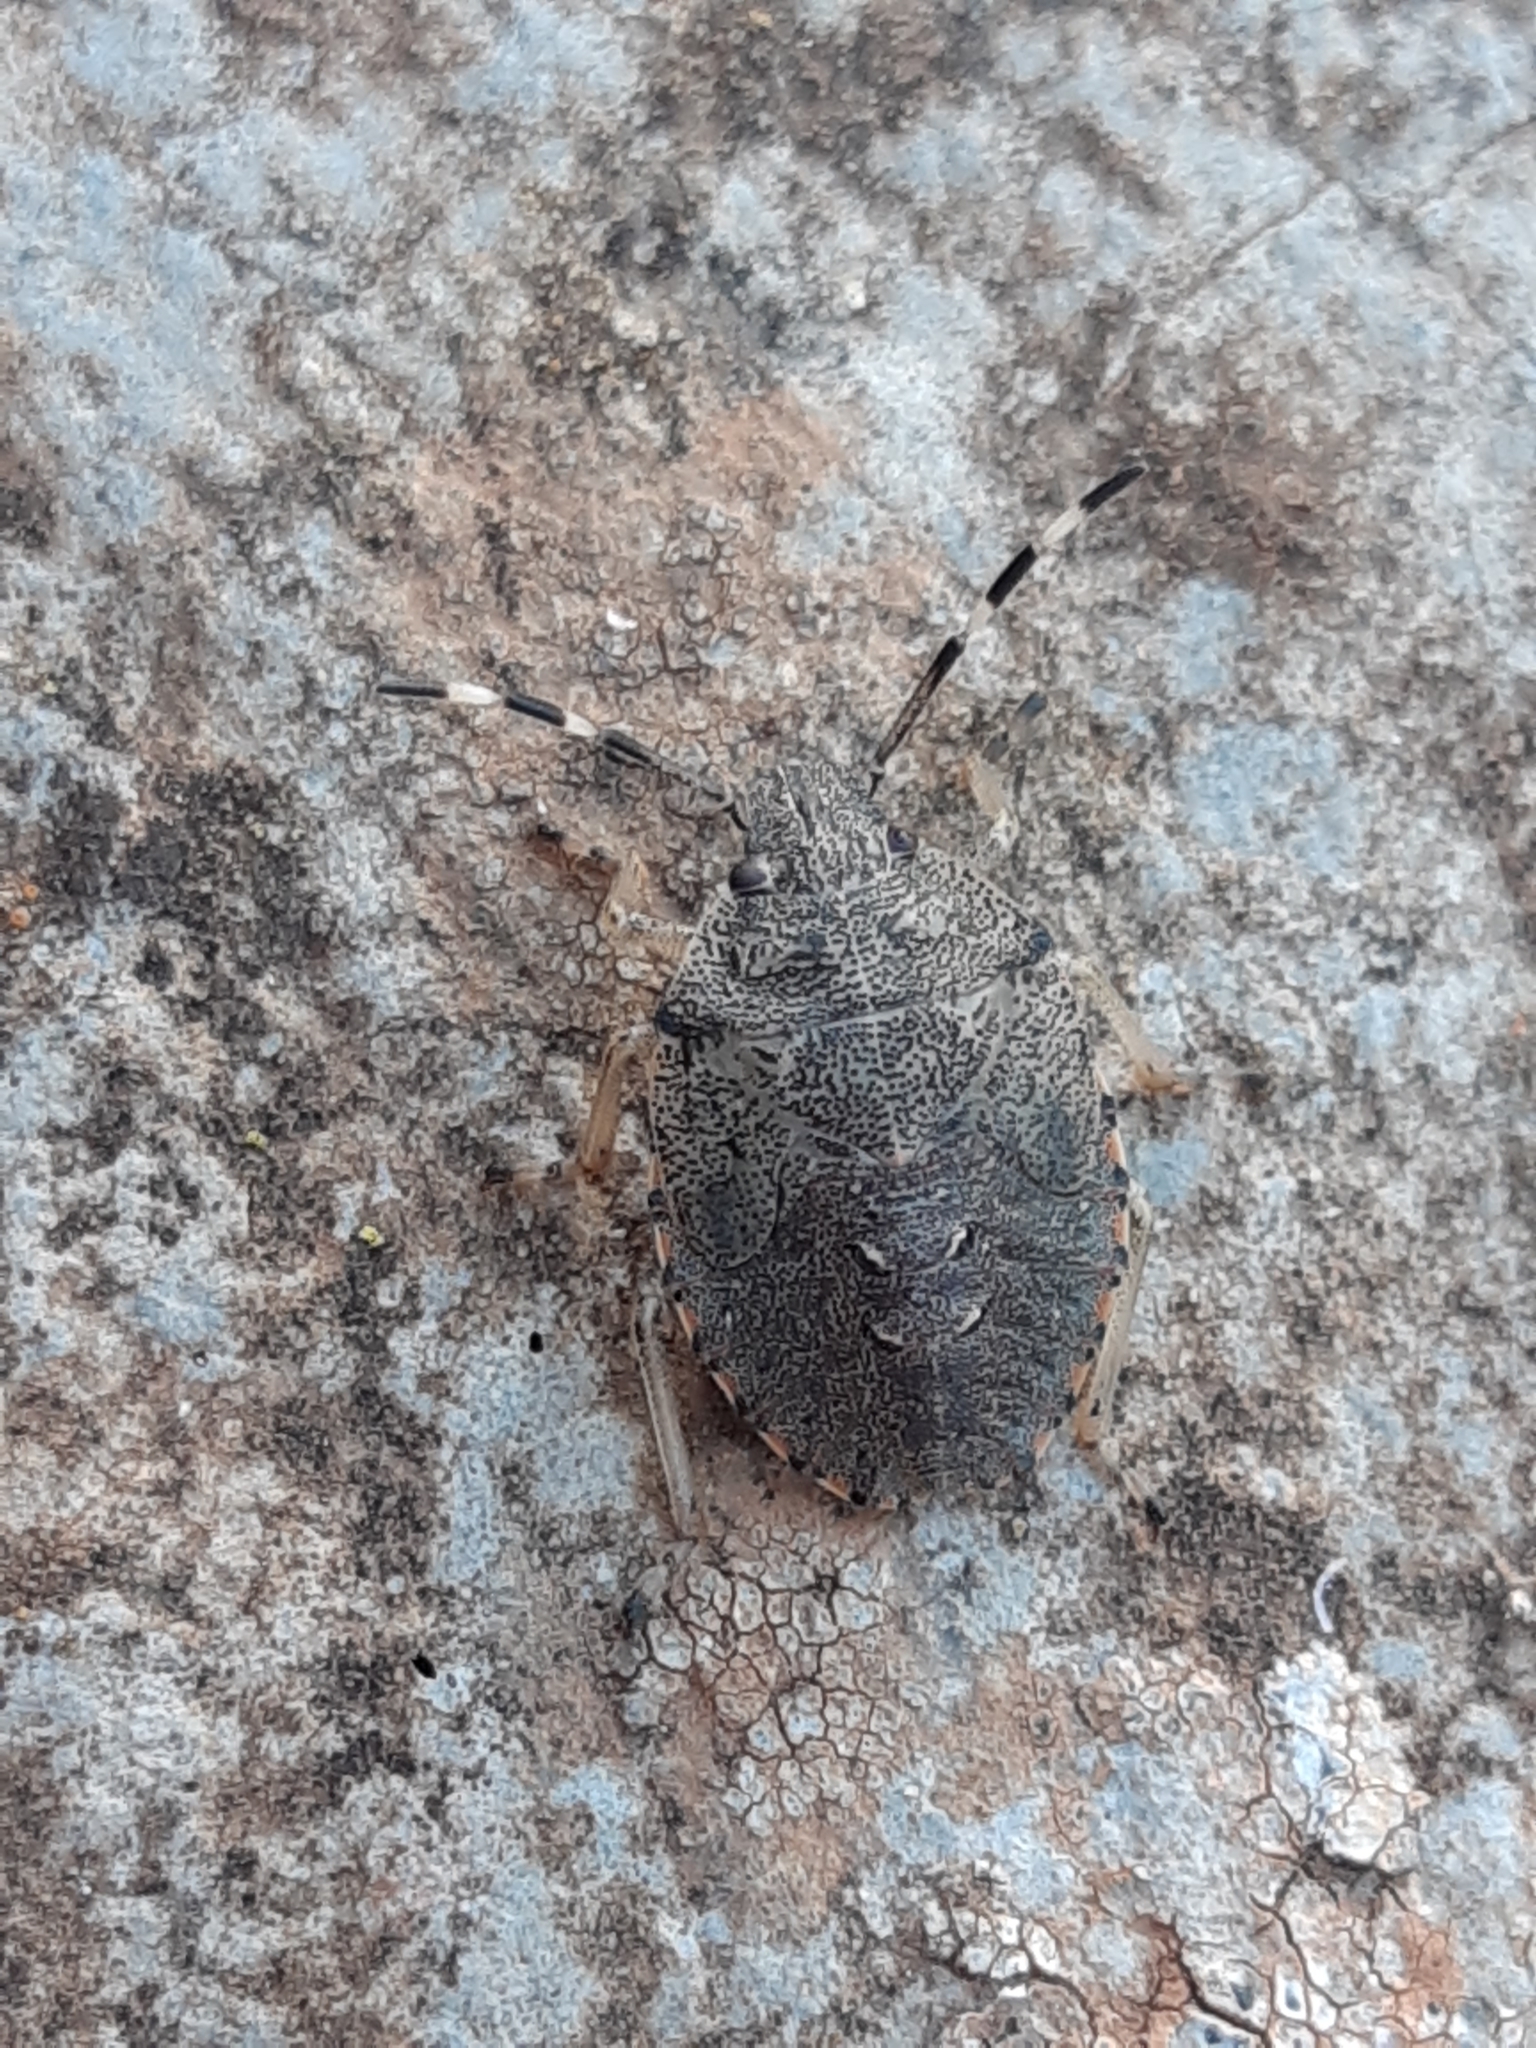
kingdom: Animalia
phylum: Arthropoda
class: Insecta
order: Hemiptera
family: Pentatomidae
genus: Rhaphigaster
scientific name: Rhaphigaster nebulosa
